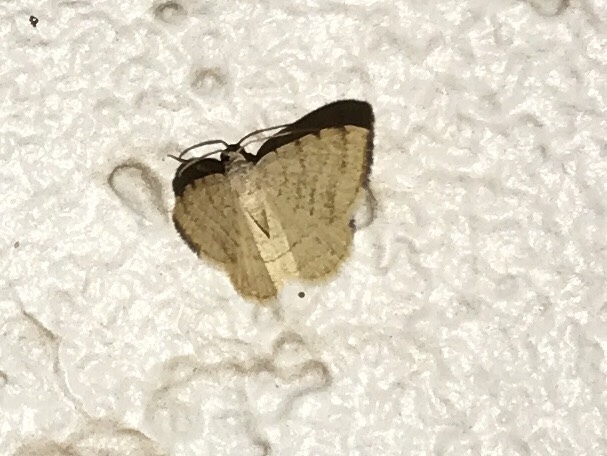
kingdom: Animalia
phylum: Arthropoda
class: Insecta
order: Lepidoptera
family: Geometridae
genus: Macaria
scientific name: Macaria octolineata
